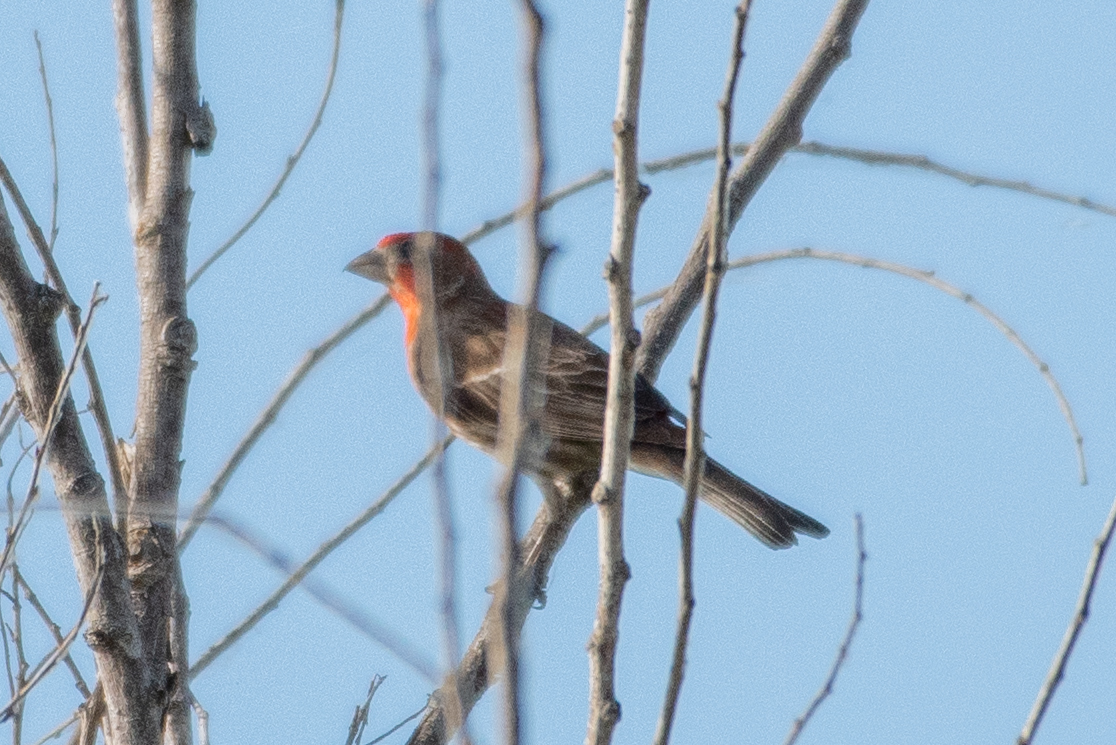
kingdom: Animalia
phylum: Chordata
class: Aves
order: Passeriformes
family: Fringillidae
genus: Haemorhous
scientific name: Haemorhous mexicanus
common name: House finch
